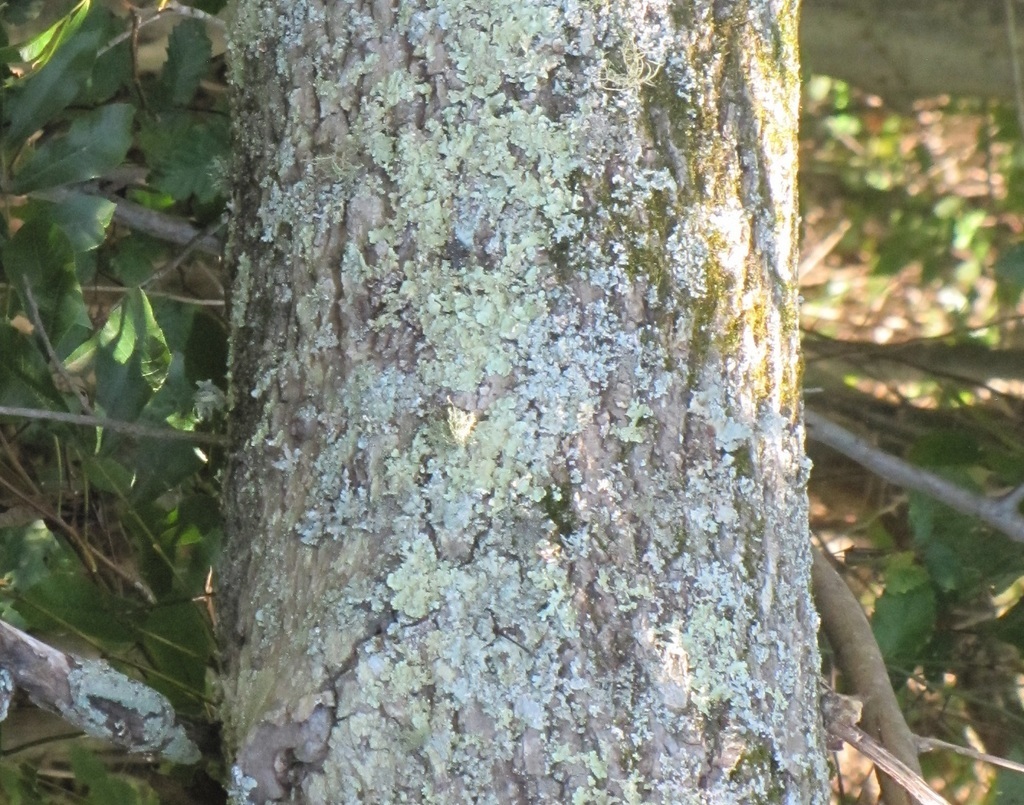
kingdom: Plantae
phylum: Tracheophyta
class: Magnoliopsida
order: Fagales
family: Juglandaceae
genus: Carya
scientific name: Carya cordiformis
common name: Bitternut hickory
